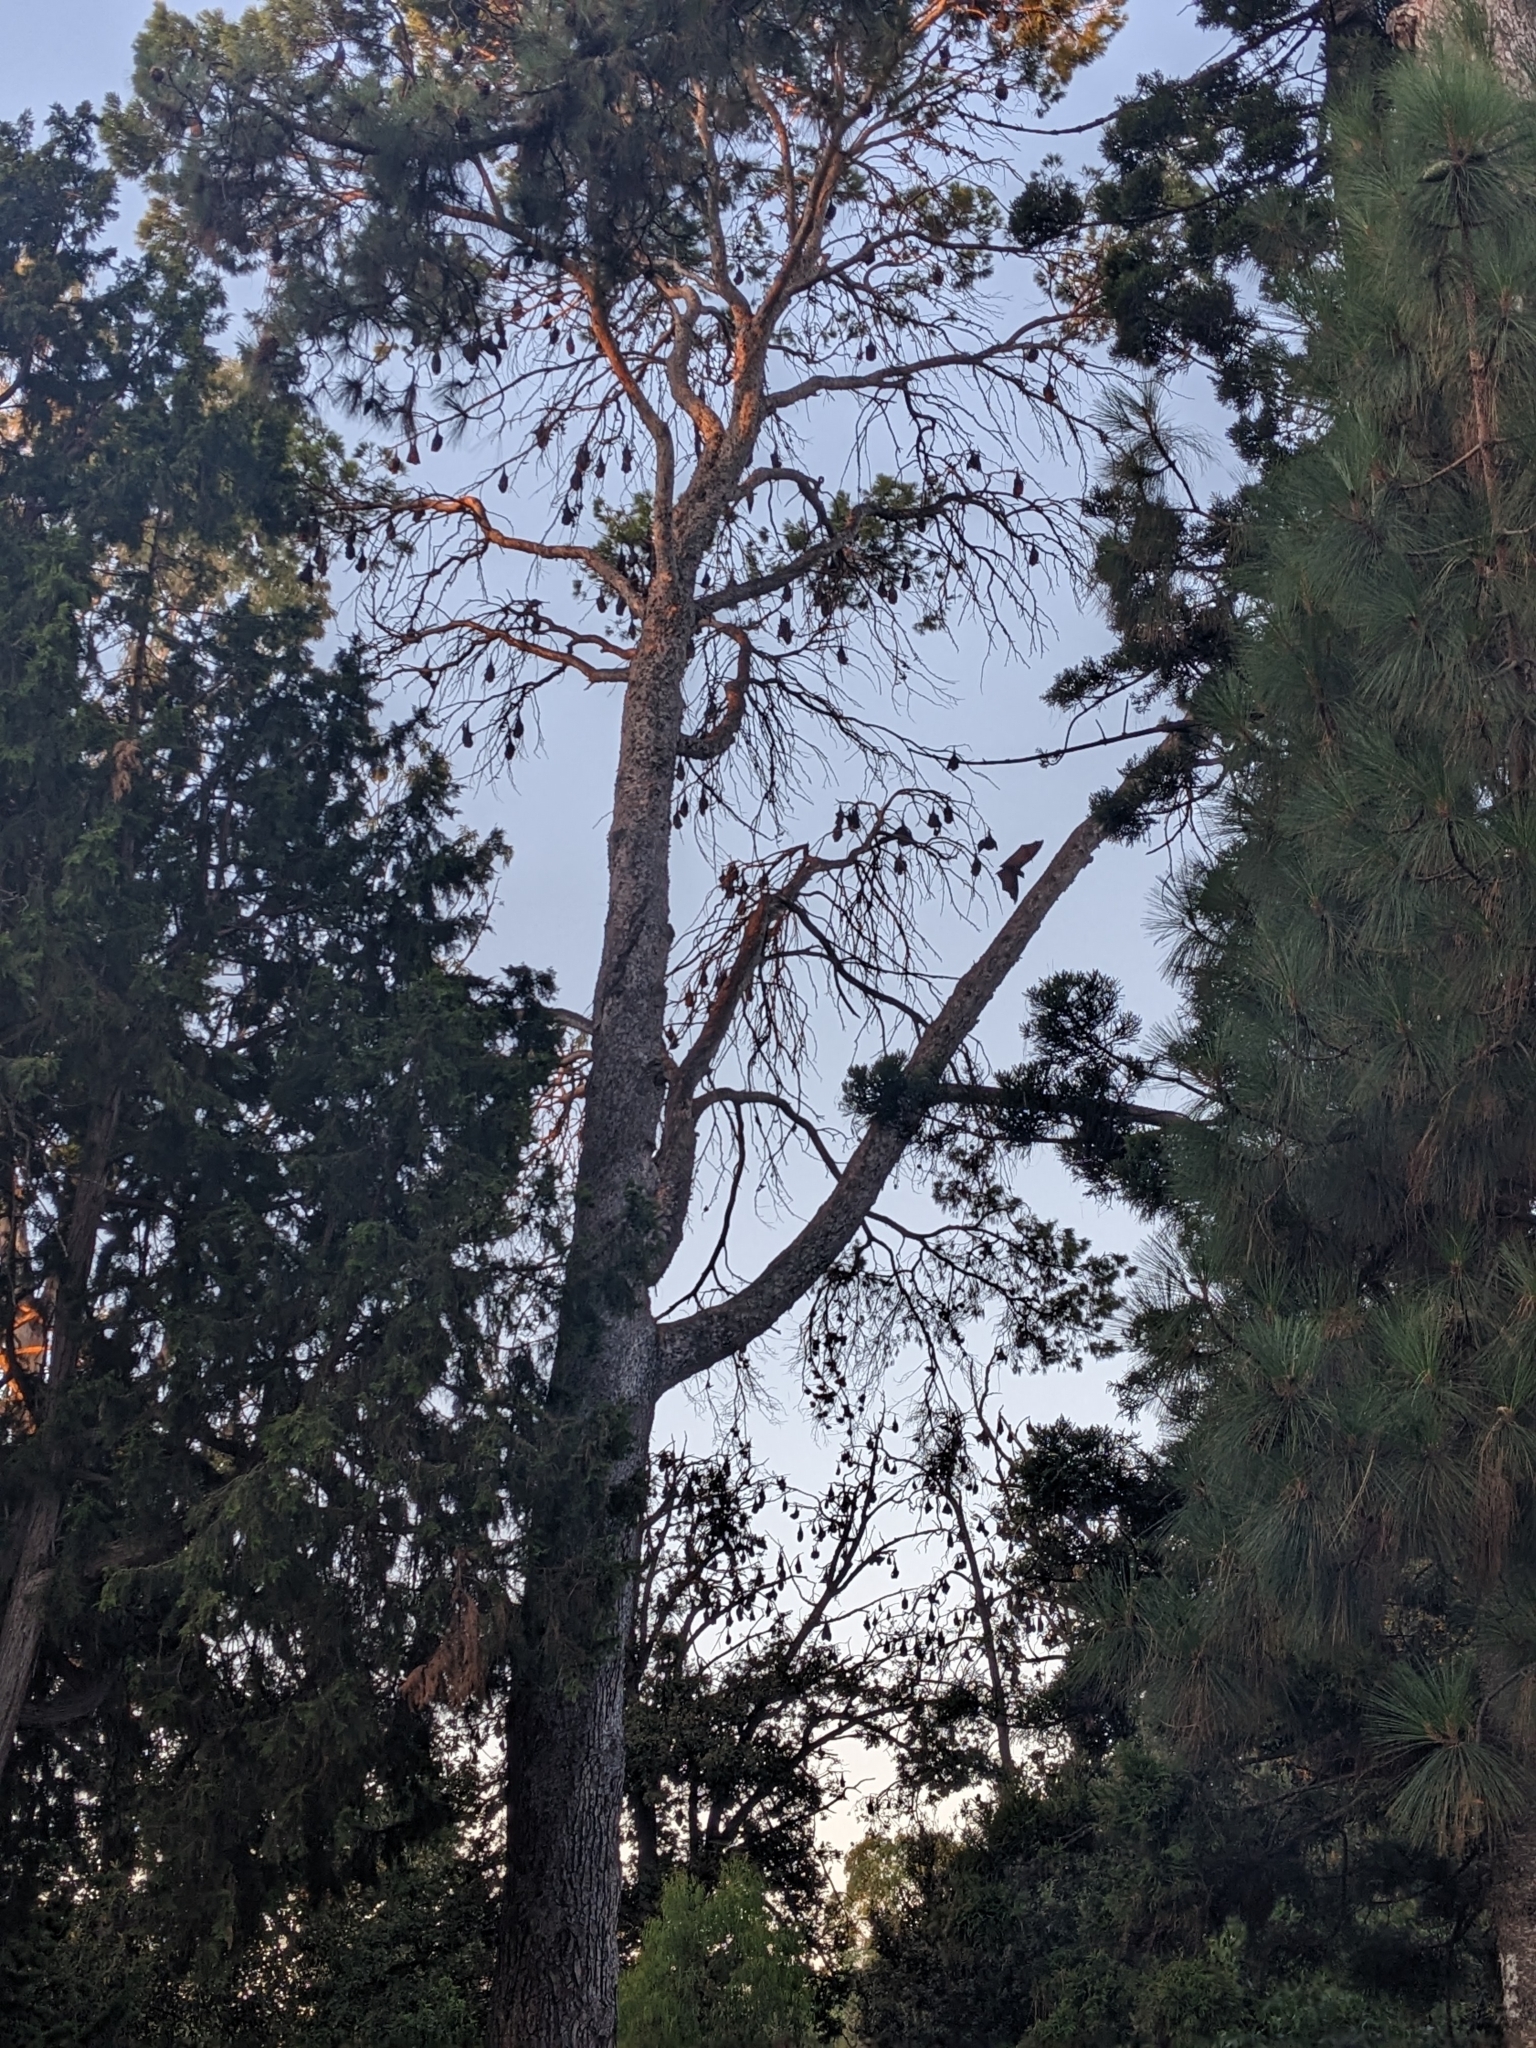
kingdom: Animalia
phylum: Chordata
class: Mammalia
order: Chiroptera
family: Pteropodidae
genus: Pteropus
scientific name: Pteropus poliocephalus
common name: Gray-headed flying fox
